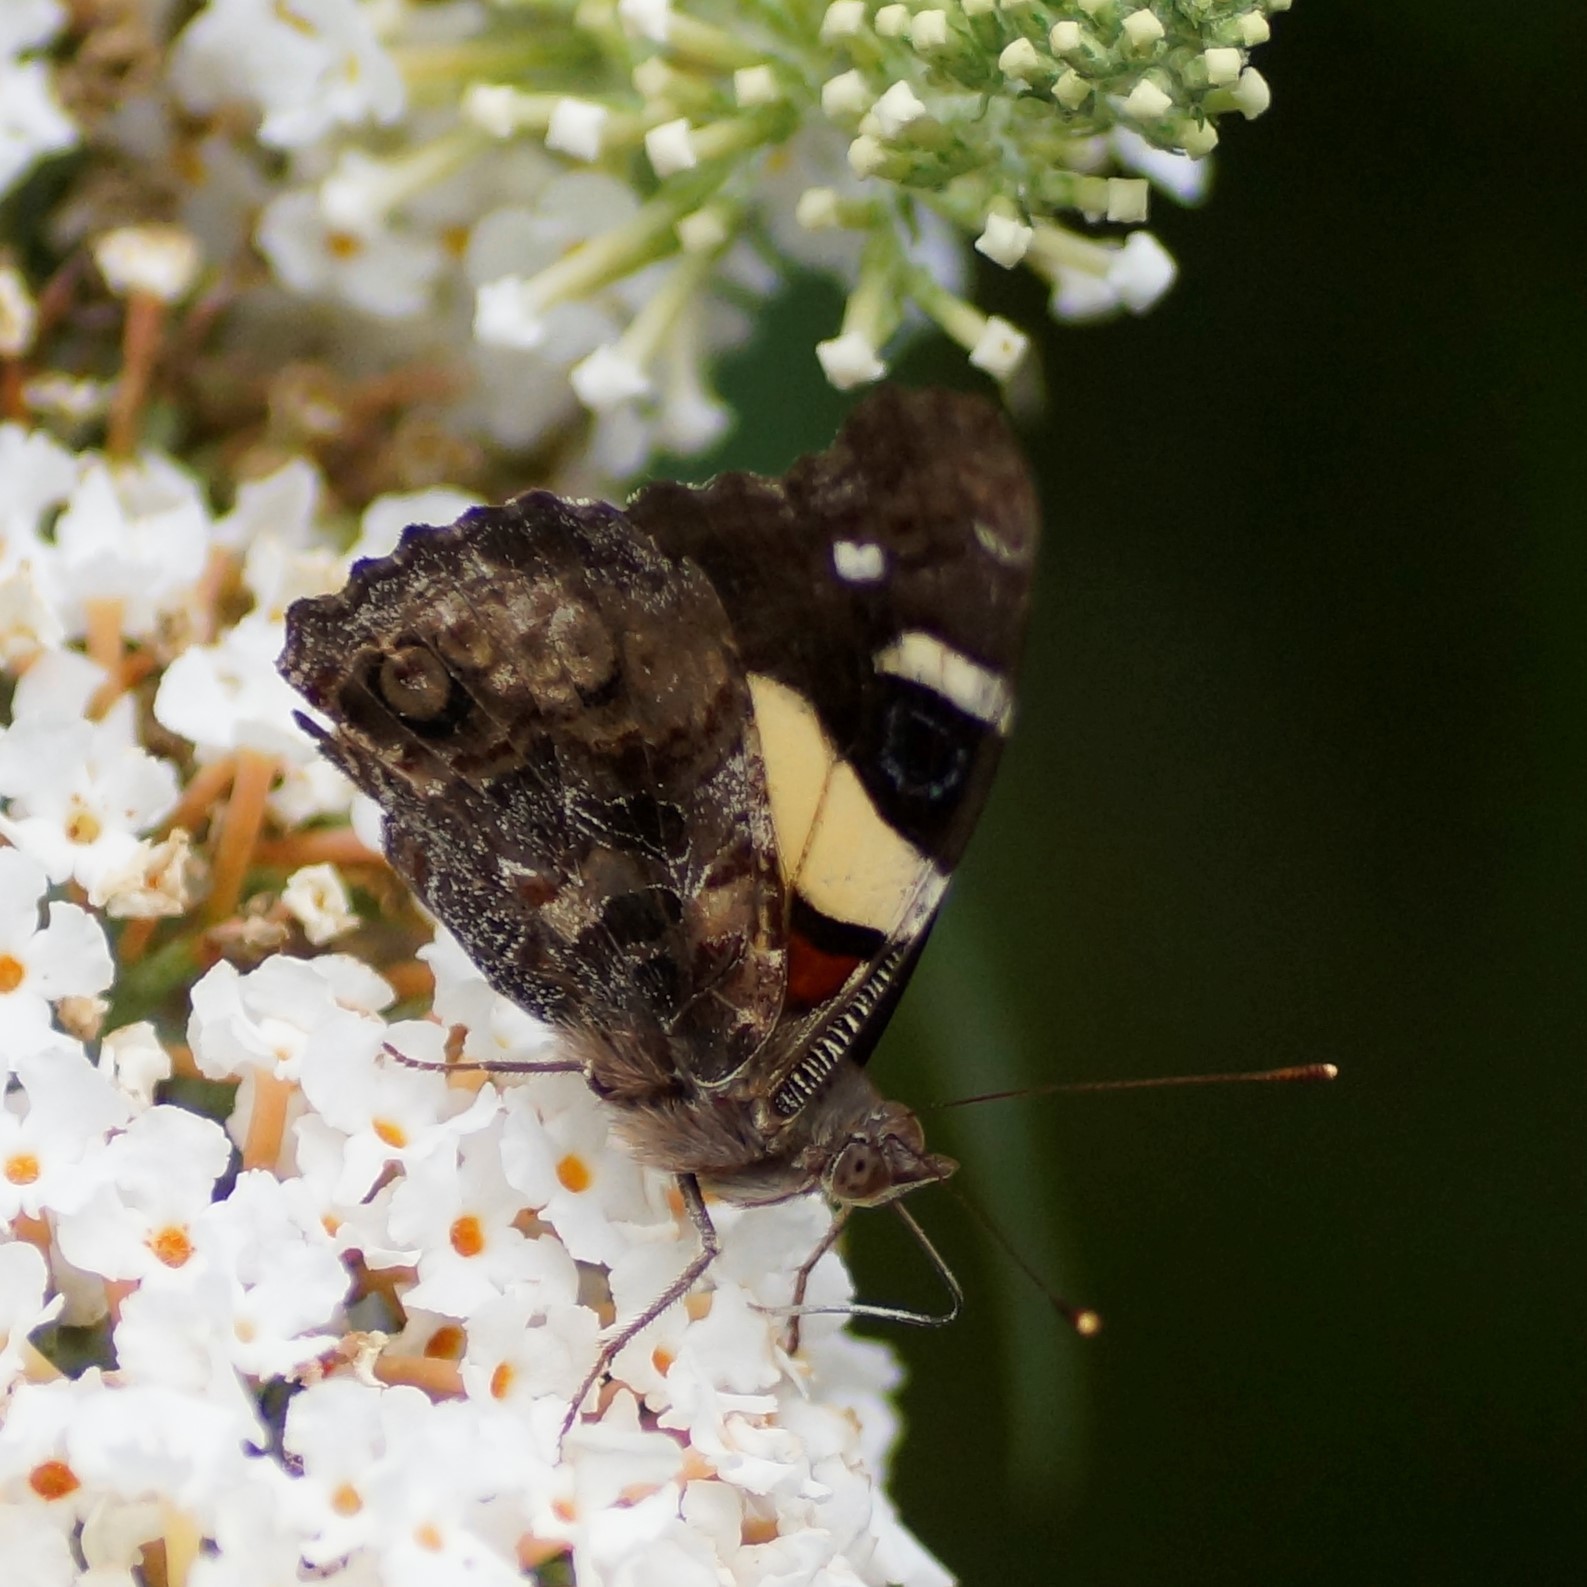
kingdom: Animalia
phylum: Arthropoda
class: Insecta
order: Lepidoptera
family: Nymphalidae
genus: Vanessa
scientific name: Vanessa itea
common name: Yellow admiral
